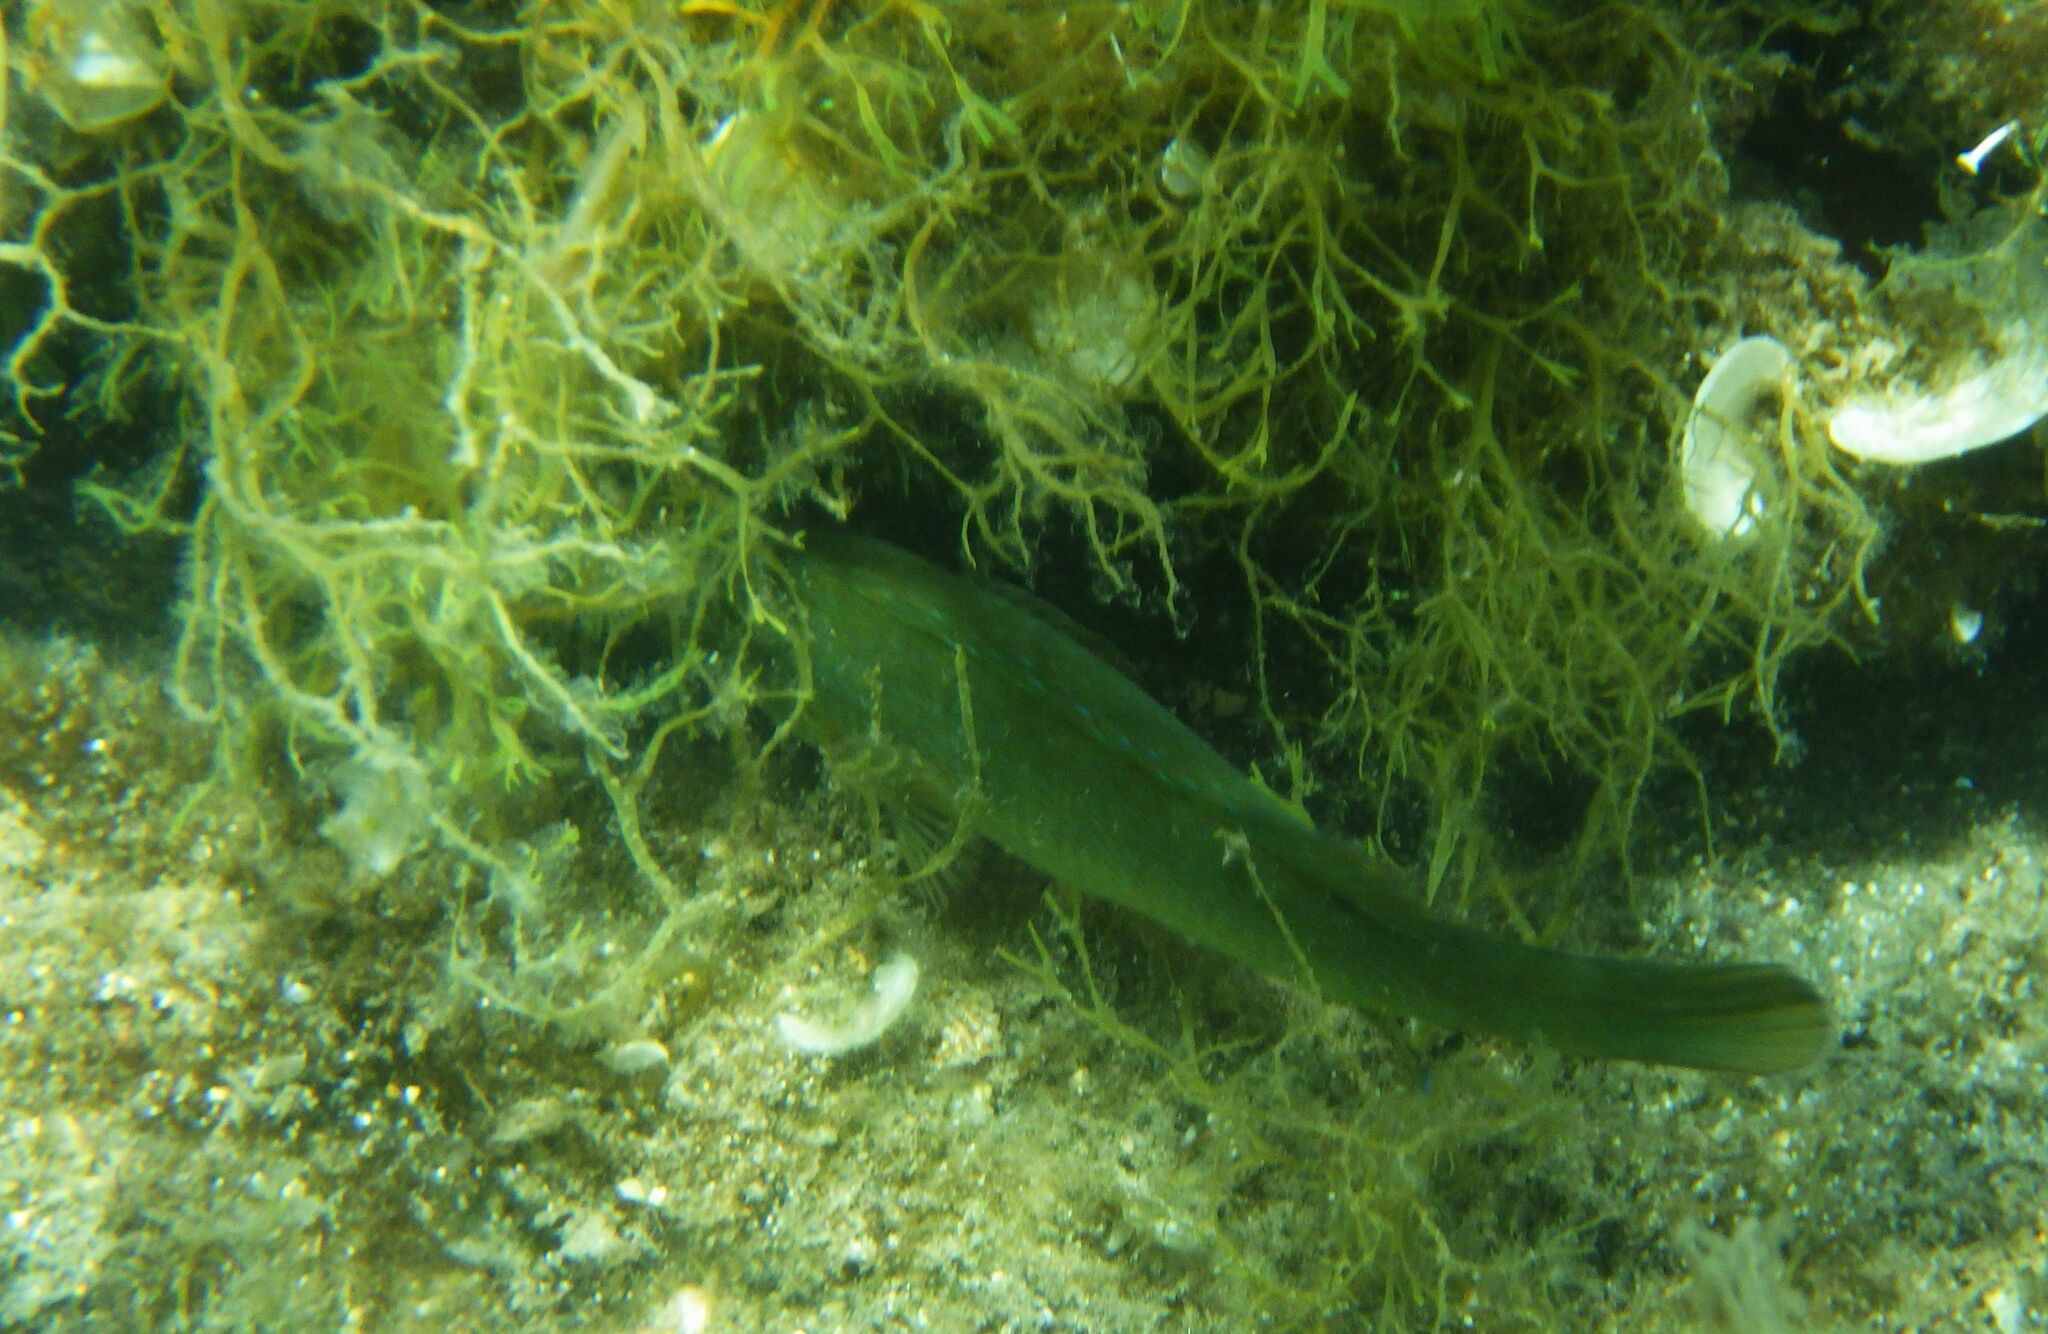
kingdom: Animalia
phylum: Chordata
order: Perciformes
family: Labridae
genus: Labrus
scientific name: Labrus merula
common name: Brown wrasse
